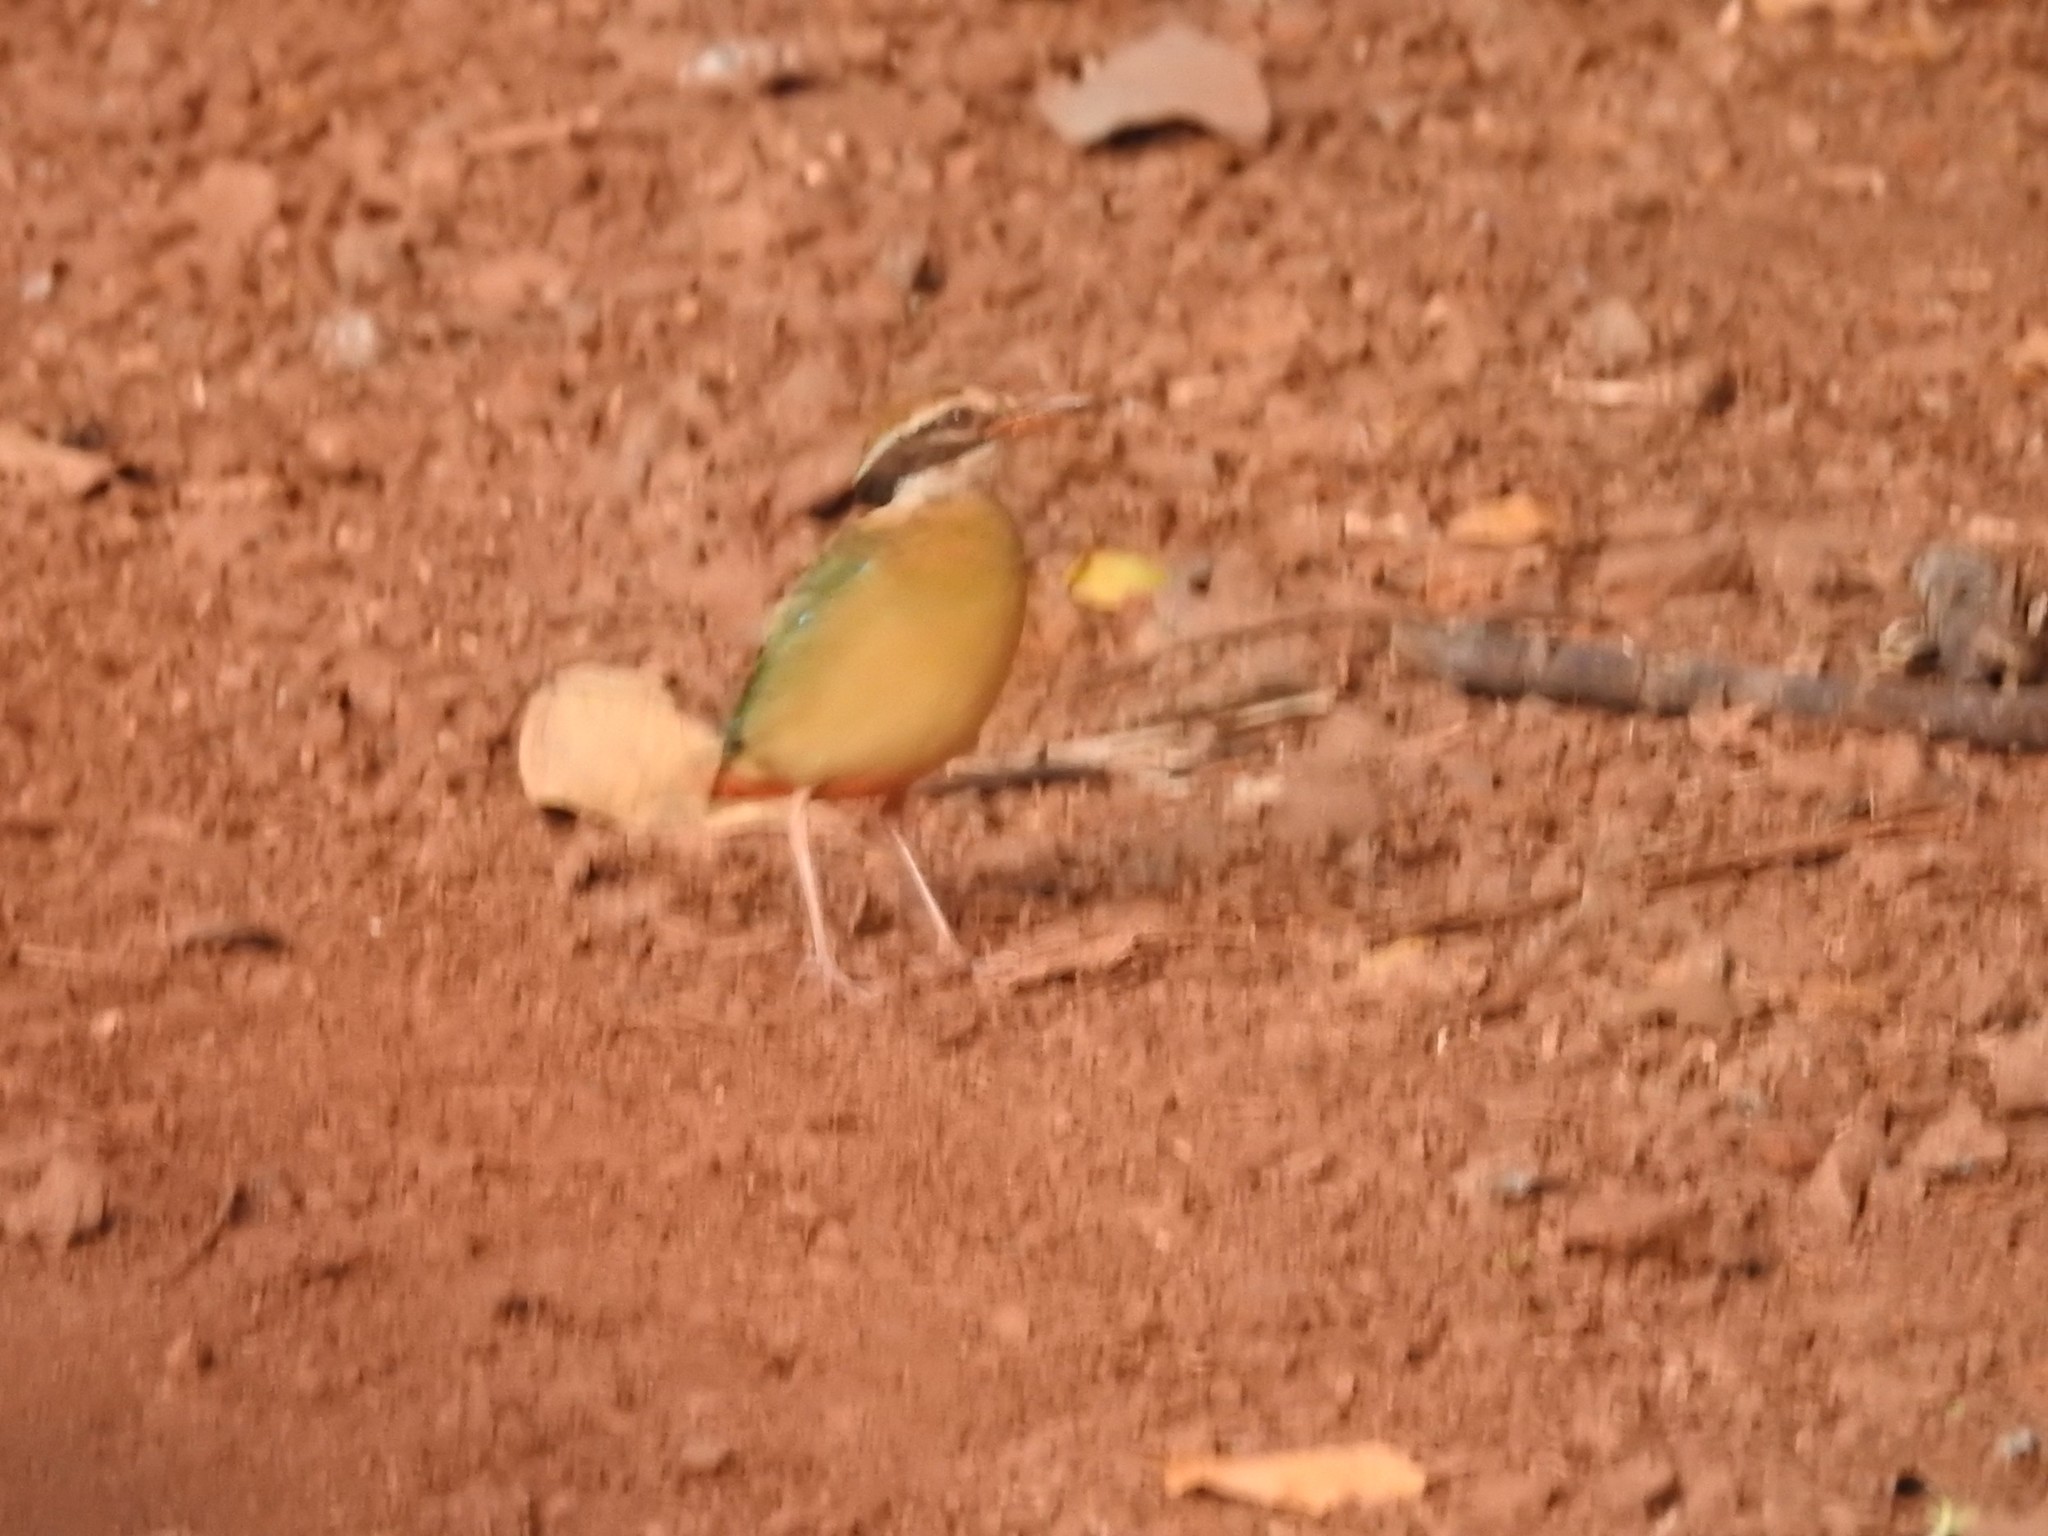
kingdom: Animalia
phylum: Chordata
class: Aves
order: Passeriformes
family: Pittidae
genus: Pitta
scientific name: Pitta brachyura
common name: Indian pitta
